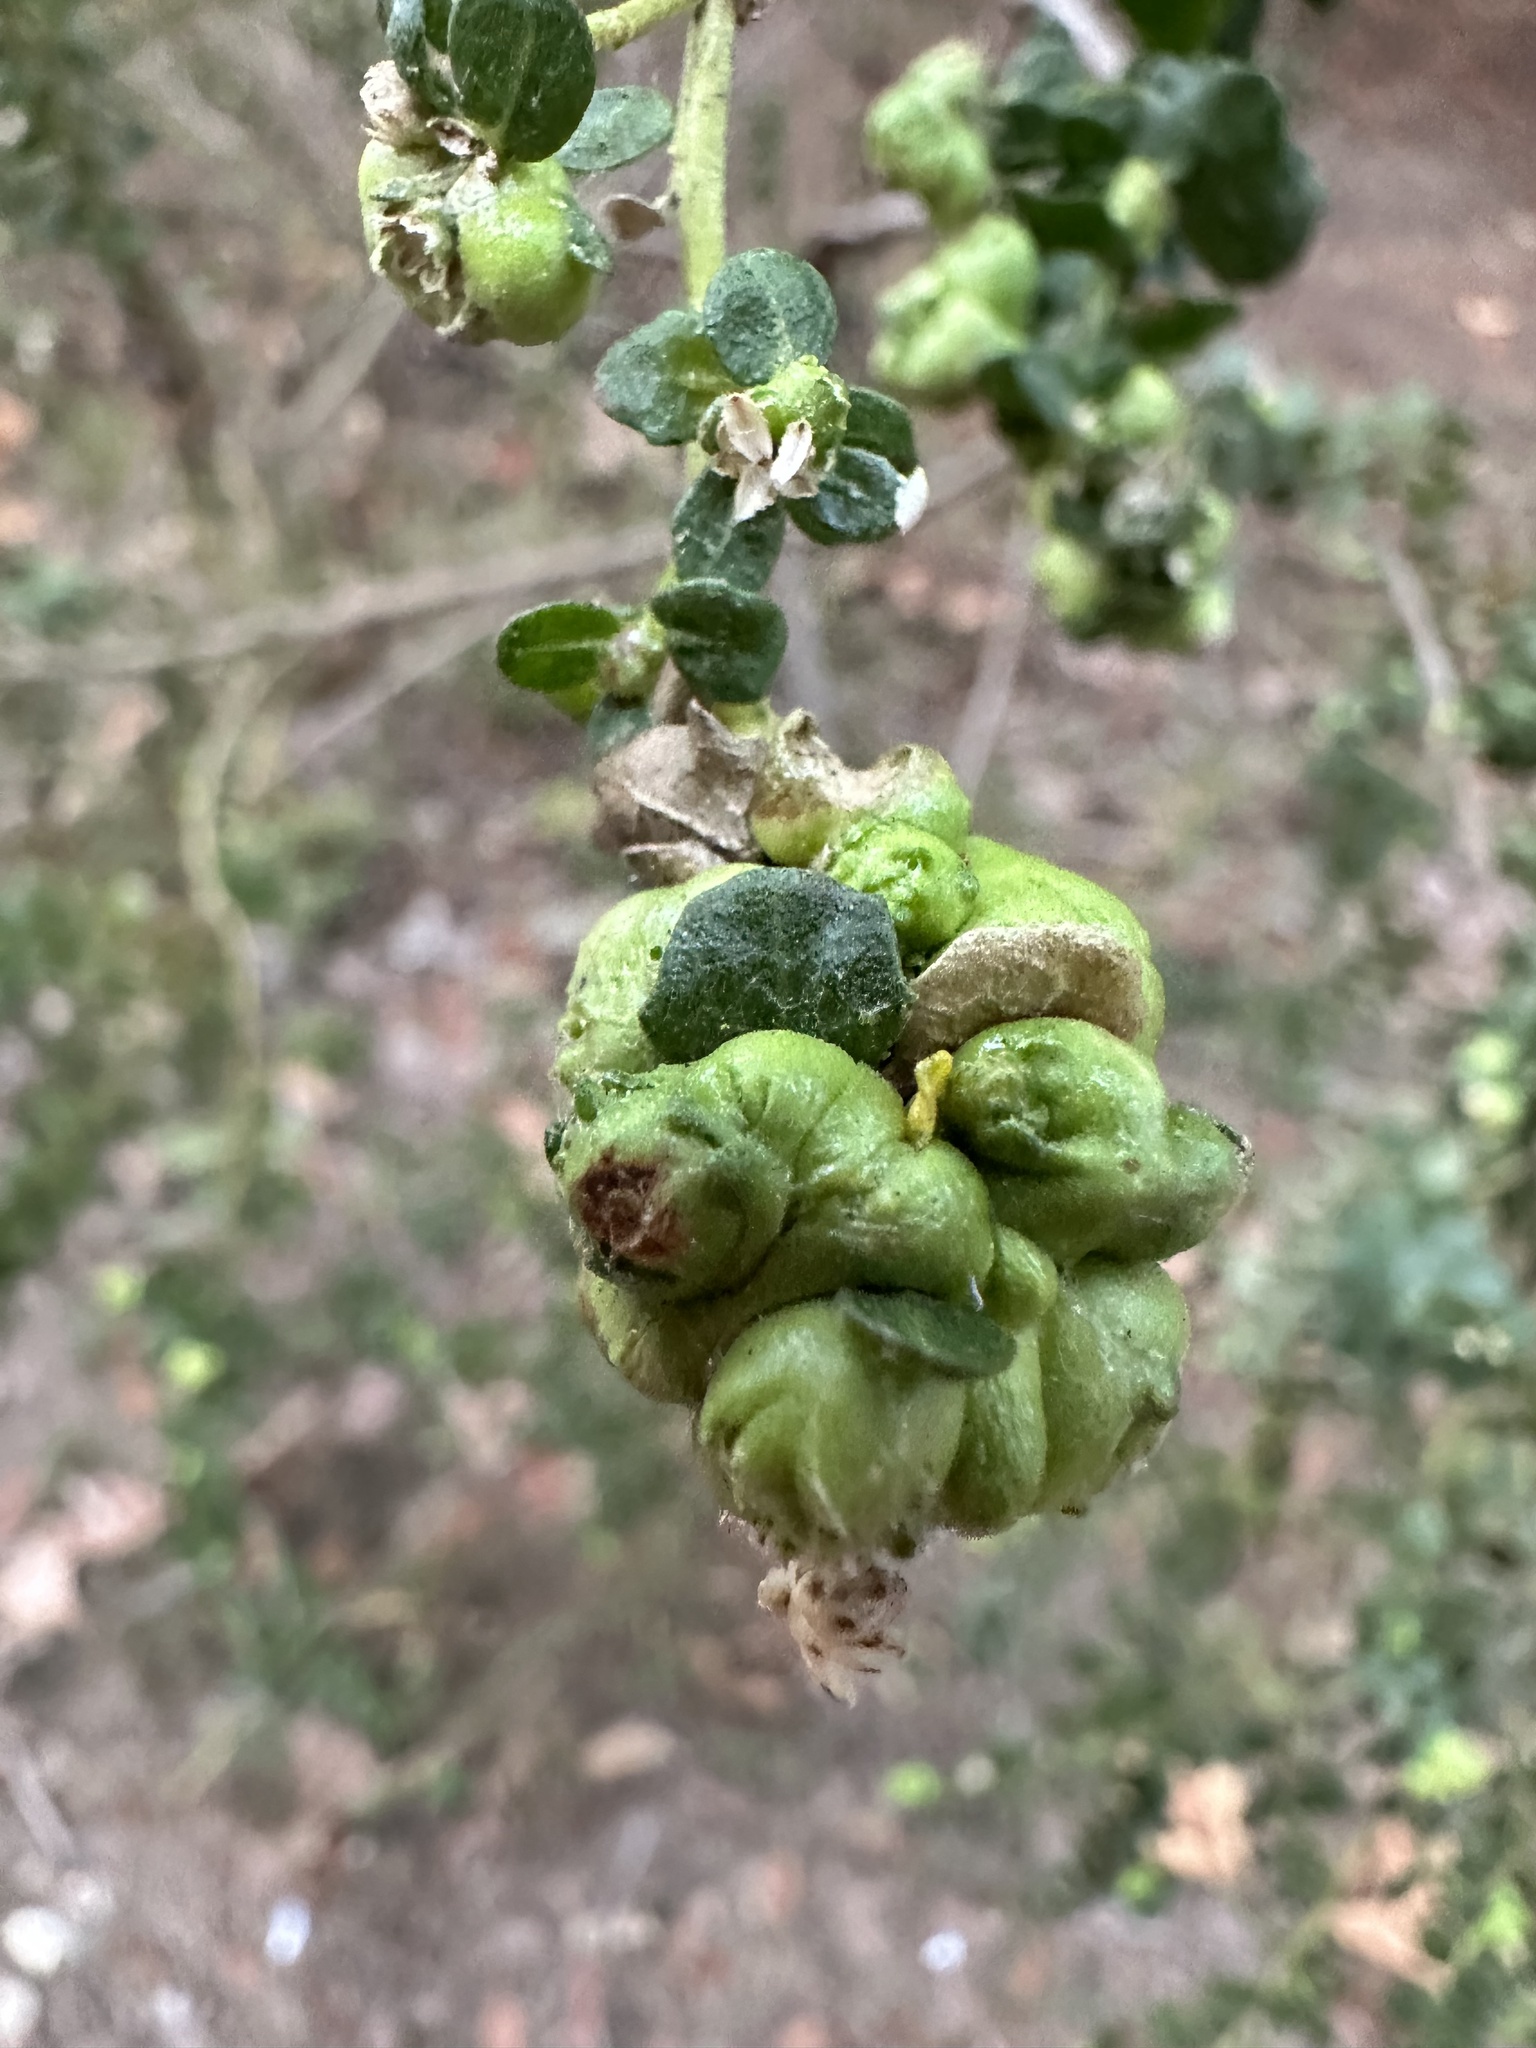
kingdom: Animalia
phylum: Arthropoda
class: Insecta
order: Diptera
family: Cecidomyiidae
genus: Rhopalomyia
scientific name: Rhopalomyia californica
